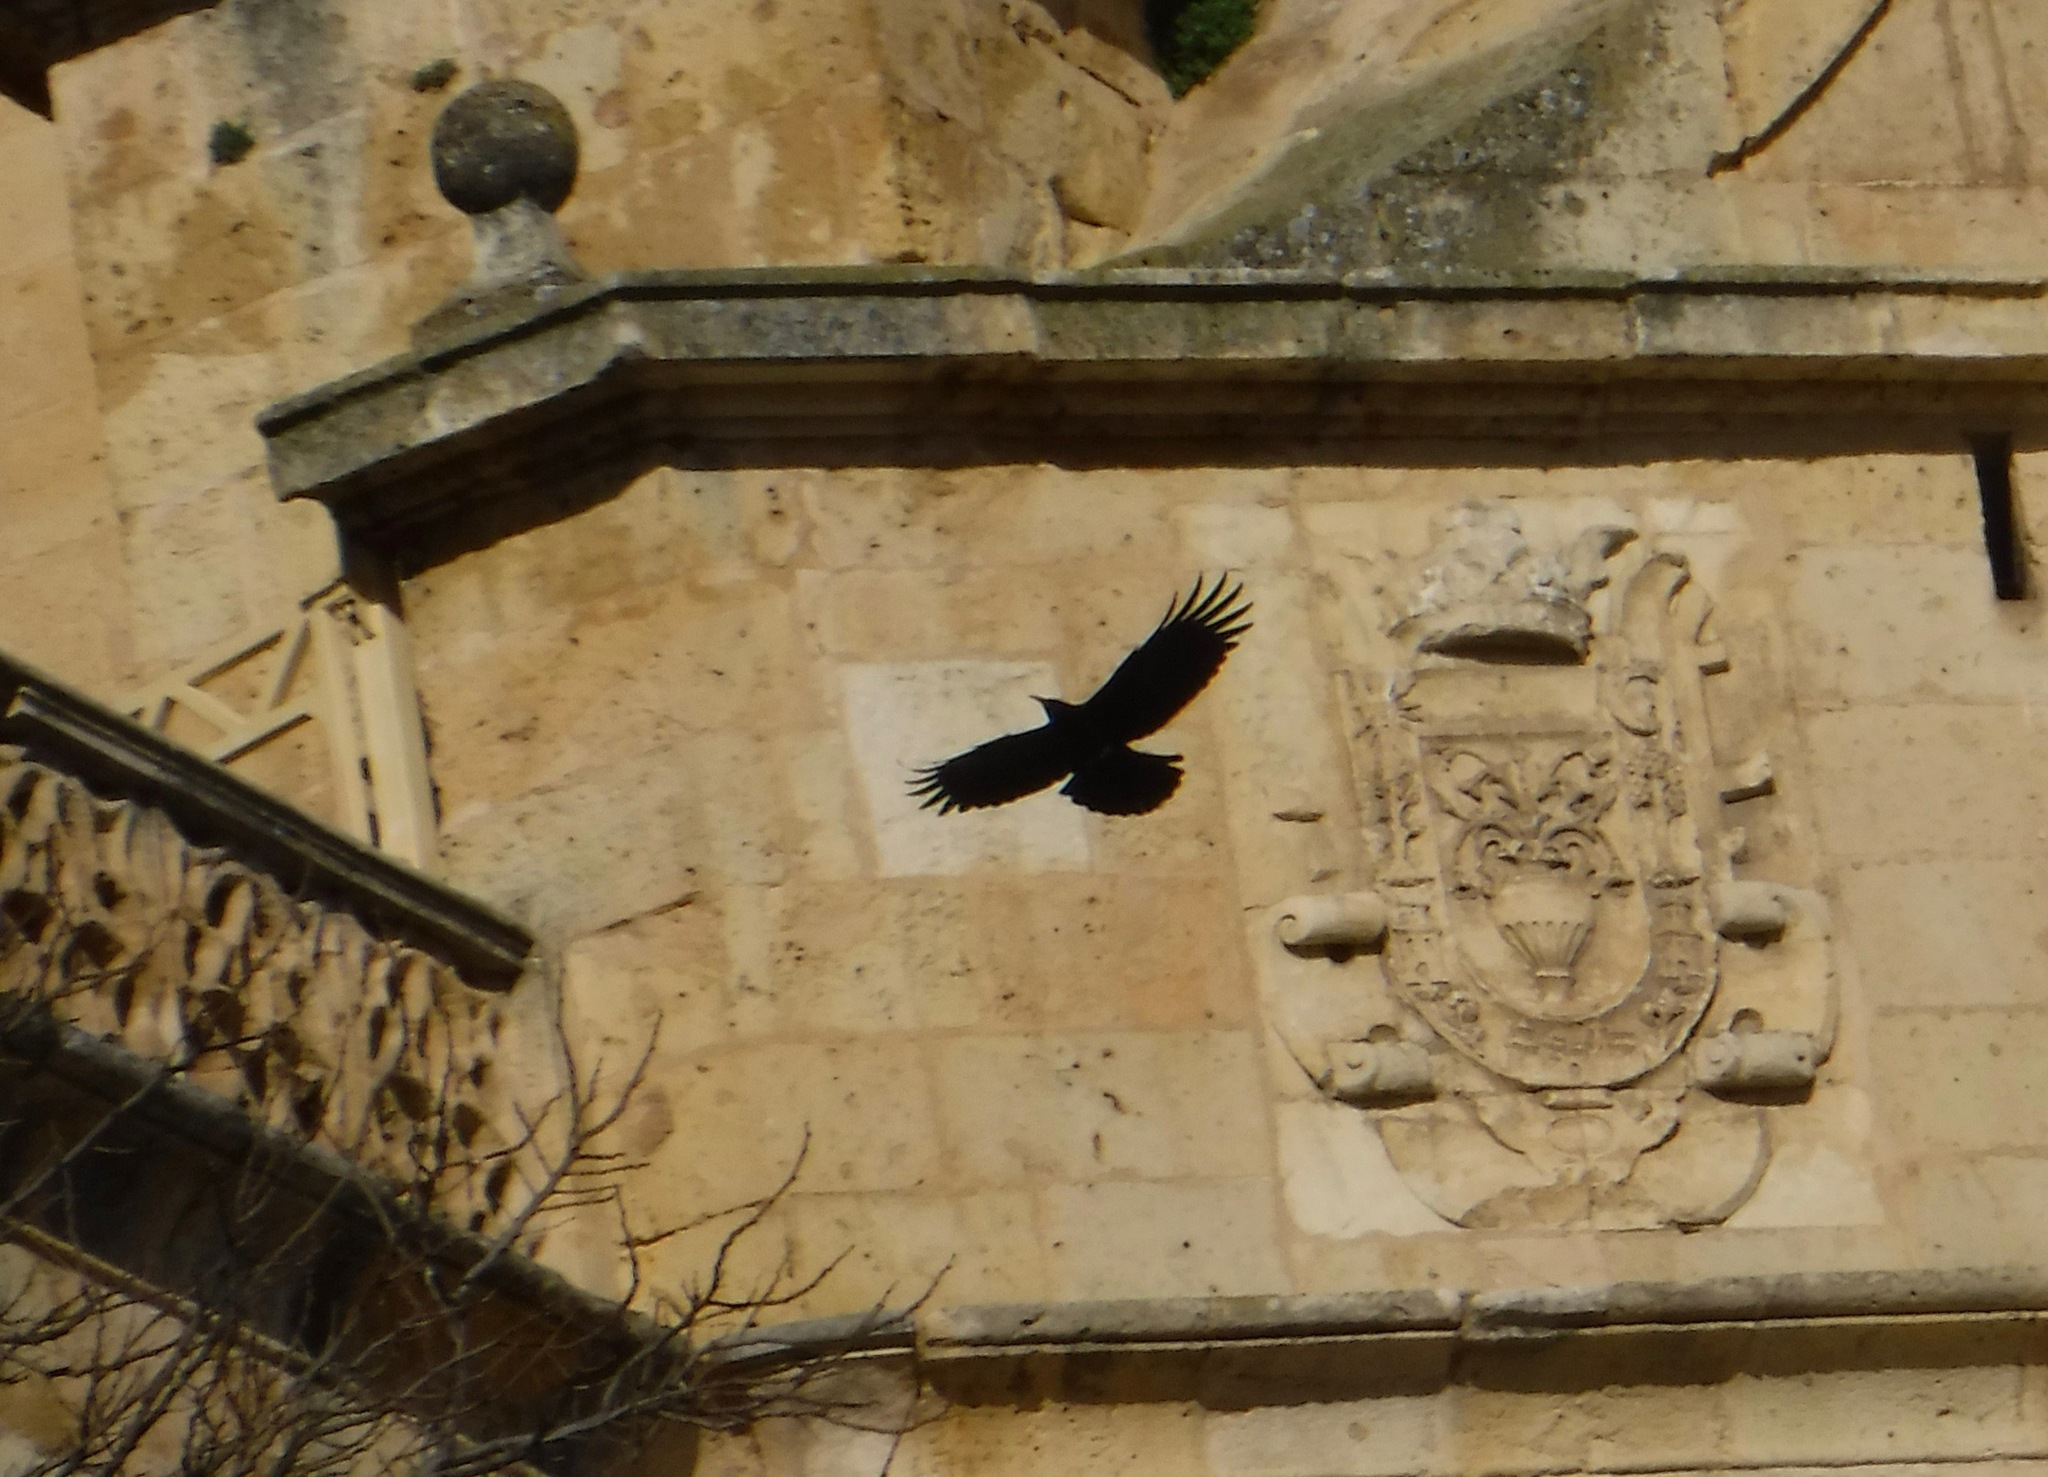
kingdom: Animalia
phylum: Chordata
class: Aves
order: Passeriformes
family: Corvidae
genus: Pyrrhocorax
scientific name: Pyrrhocorax pyrrhocorax
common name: Red-billed chough
